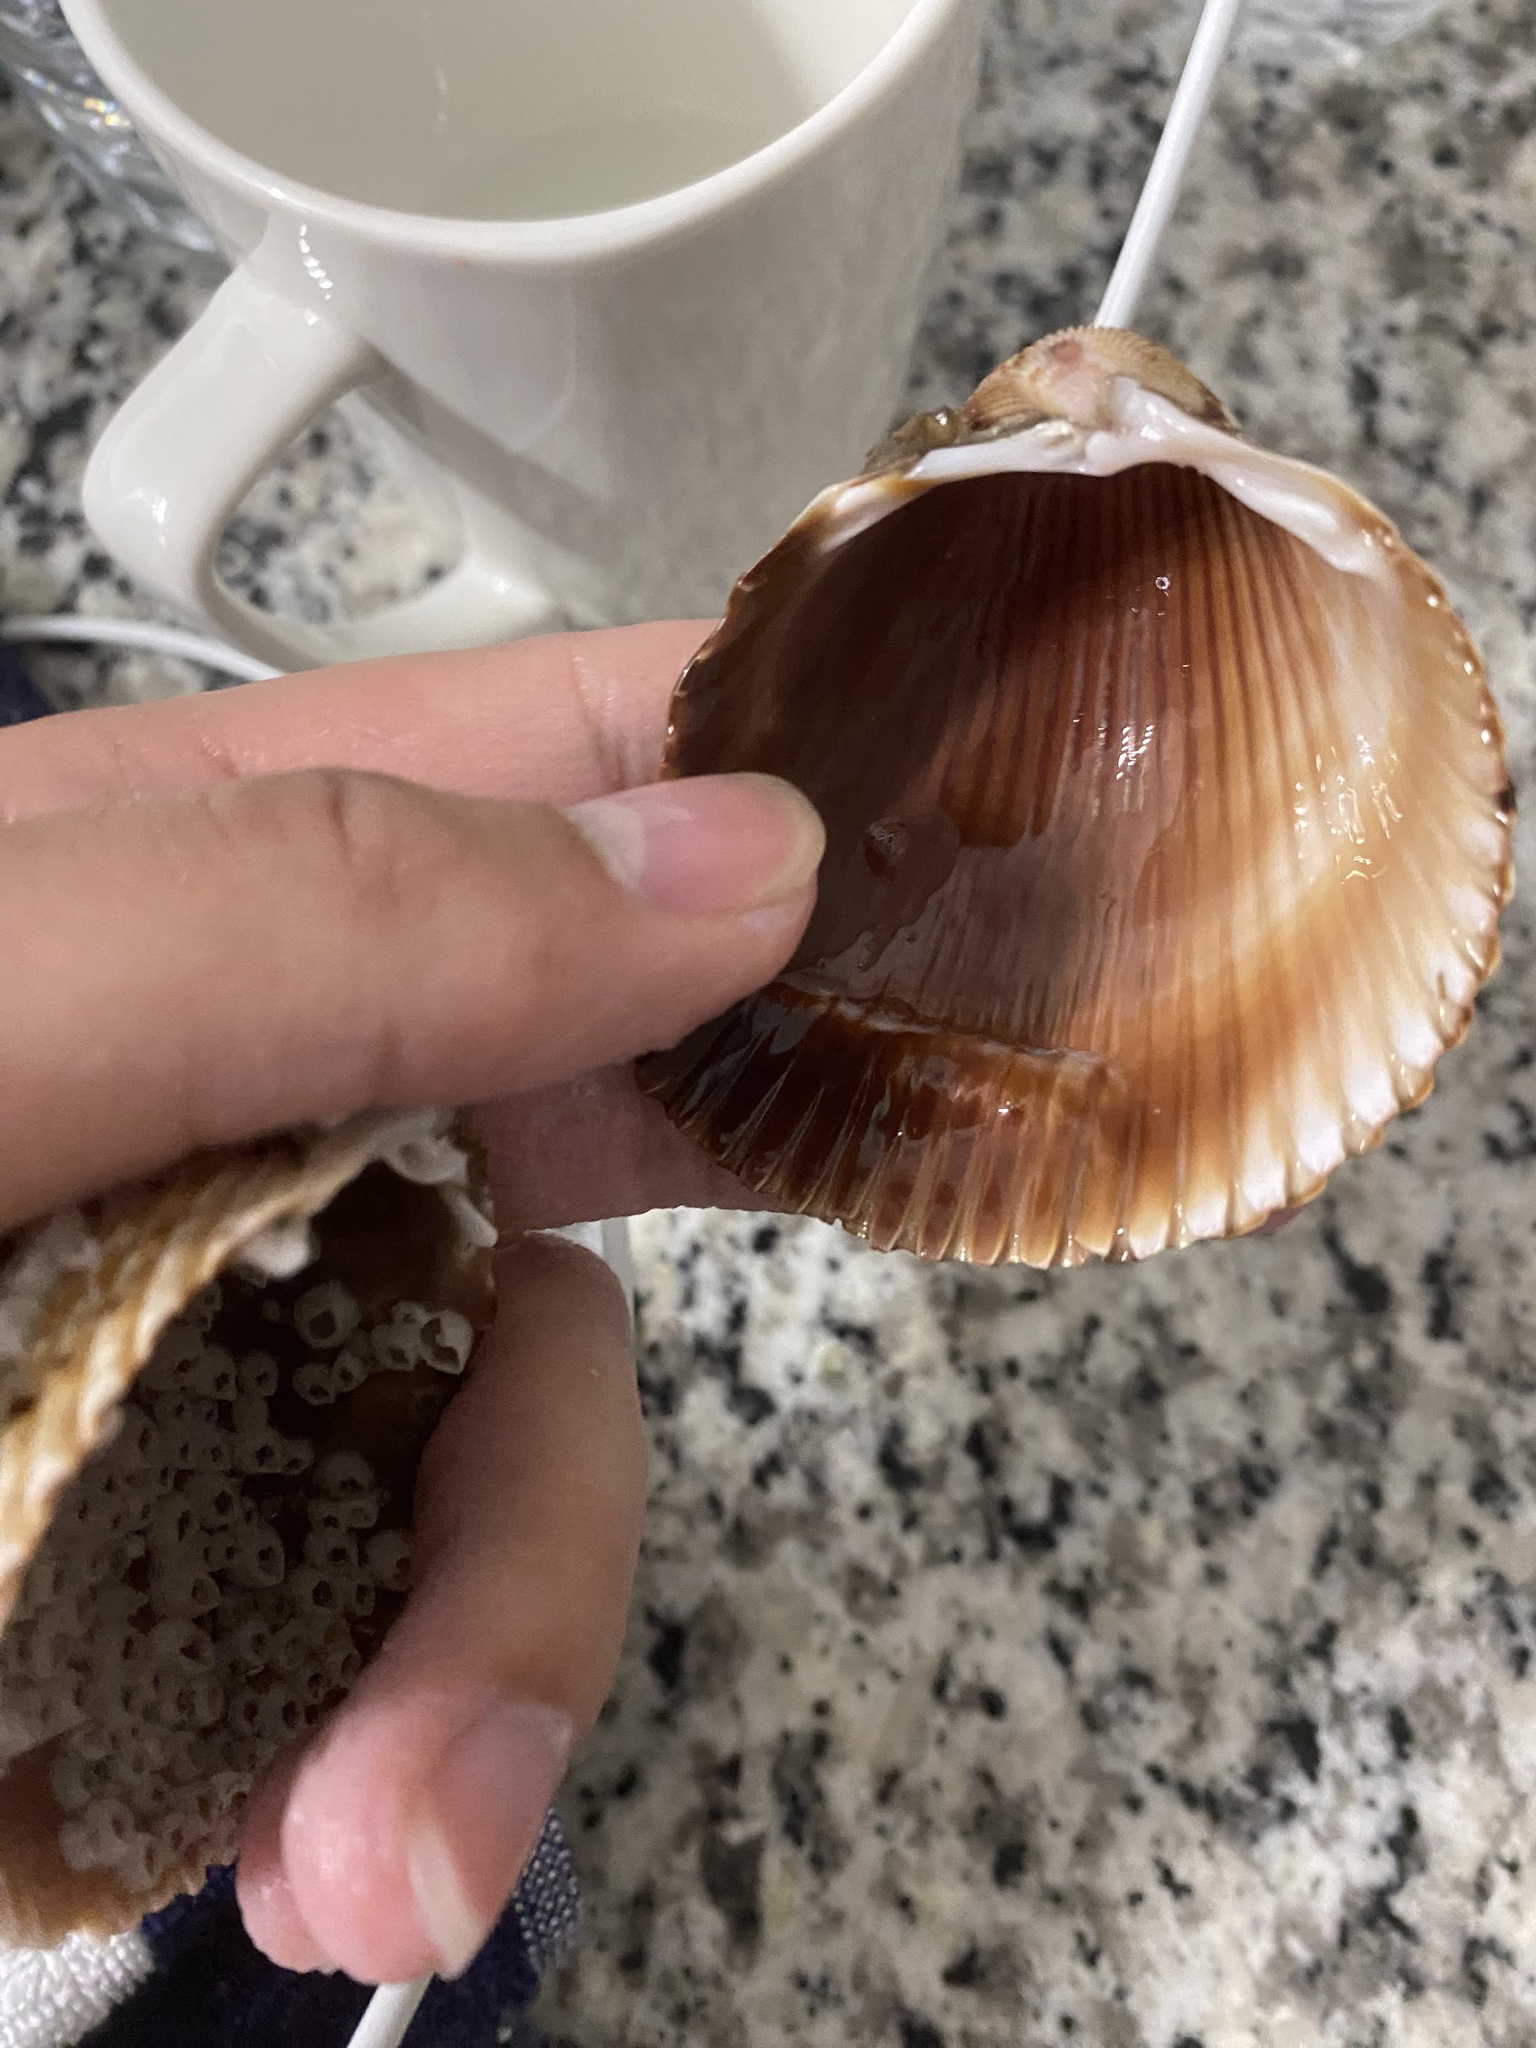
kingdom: Animalia
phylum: Mollusca
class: Bivalvia
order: Cardiida
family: Cardiidae
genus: Dinocardium
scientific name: Dinocardium robustum
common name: Atlantic giant cockle
